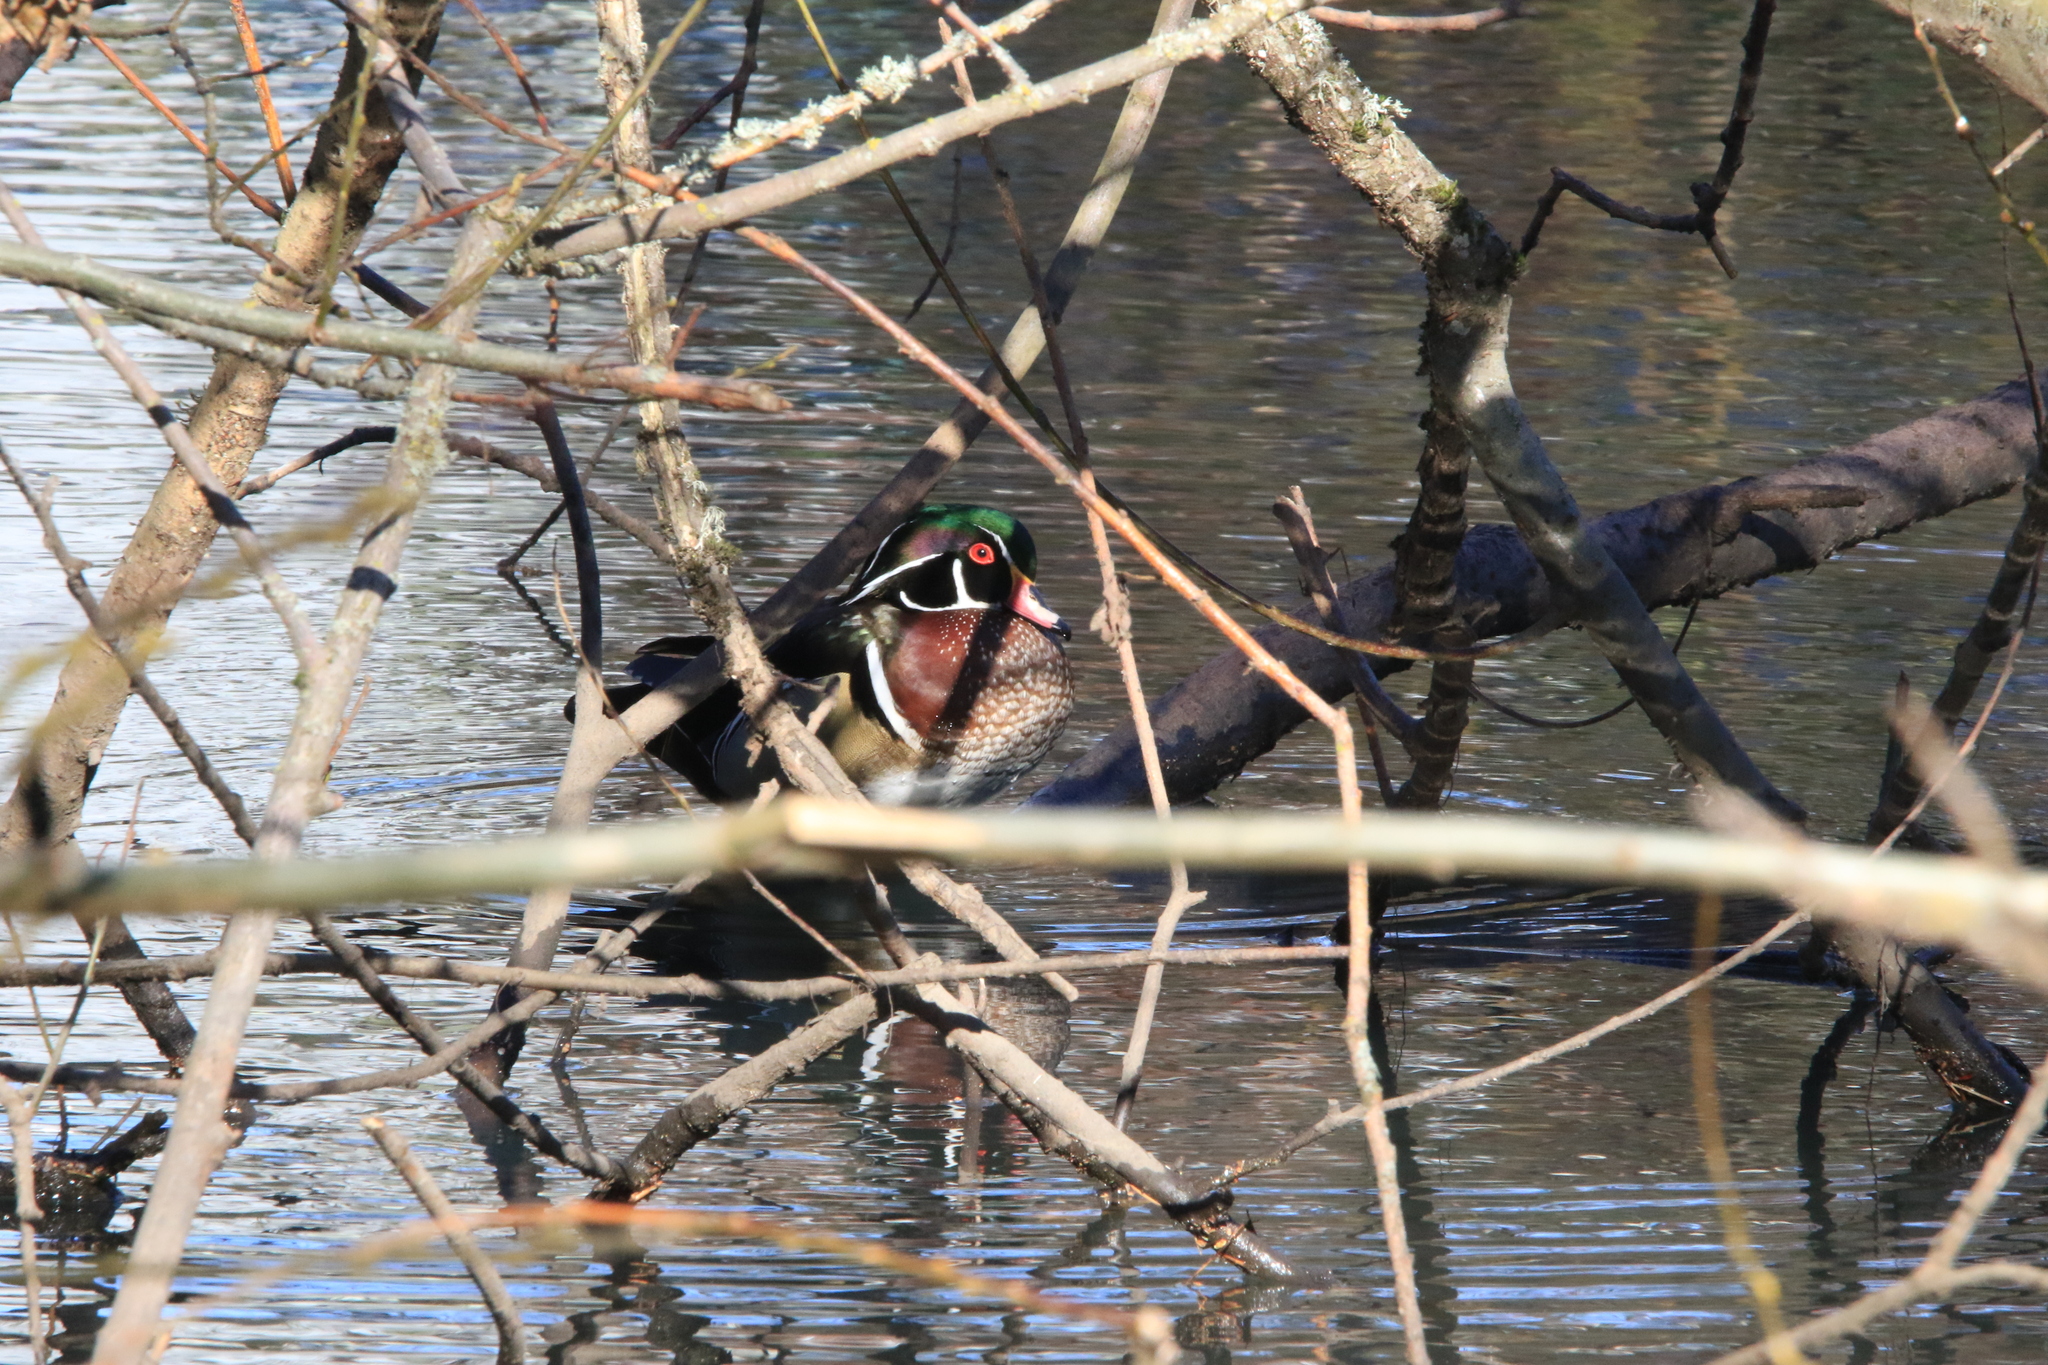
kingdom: Animalia
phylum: Chordata
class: Aves
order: Anseriformes
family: Anatidae
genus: Aix
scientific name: Aix sponsa
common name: Wood duck
